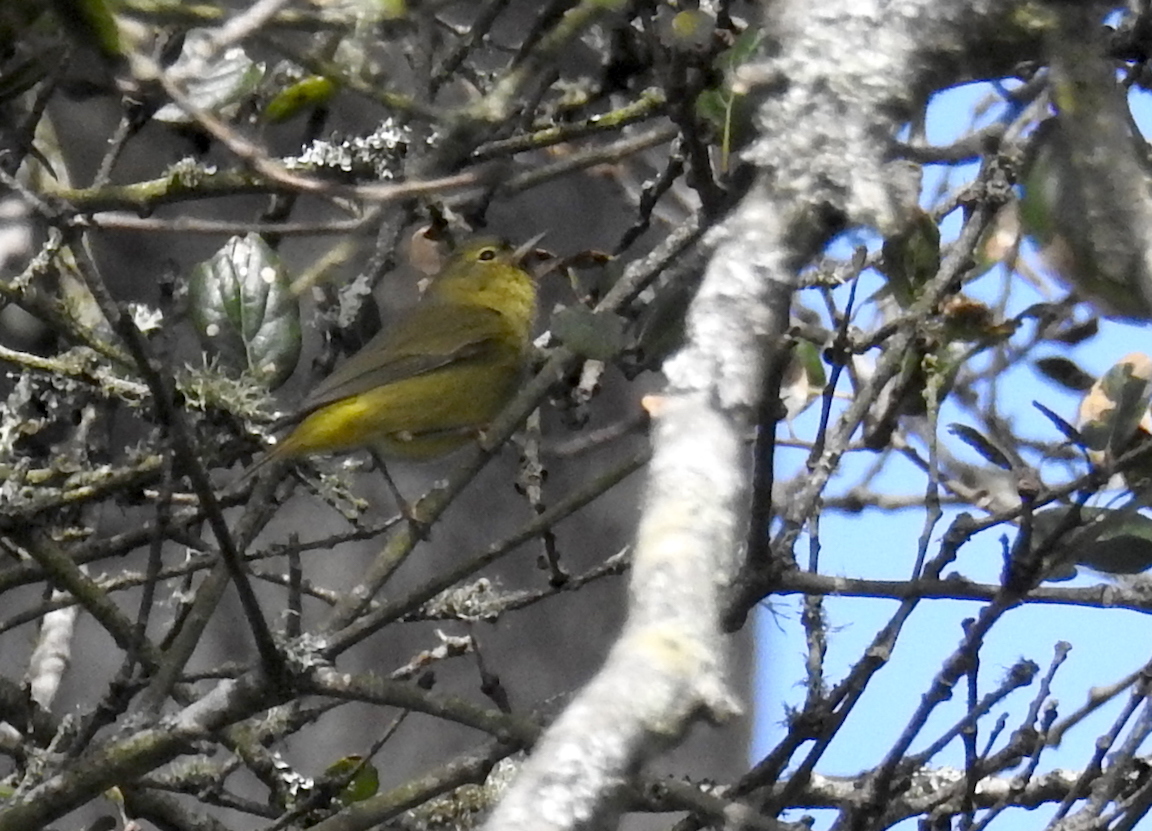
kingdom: Animalia
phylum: Chordata
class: Aves
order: Passeriformes
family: Parulidae
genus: Leiothlypis
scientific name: Leiothlypis celata
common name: Orange-crowned warbler
